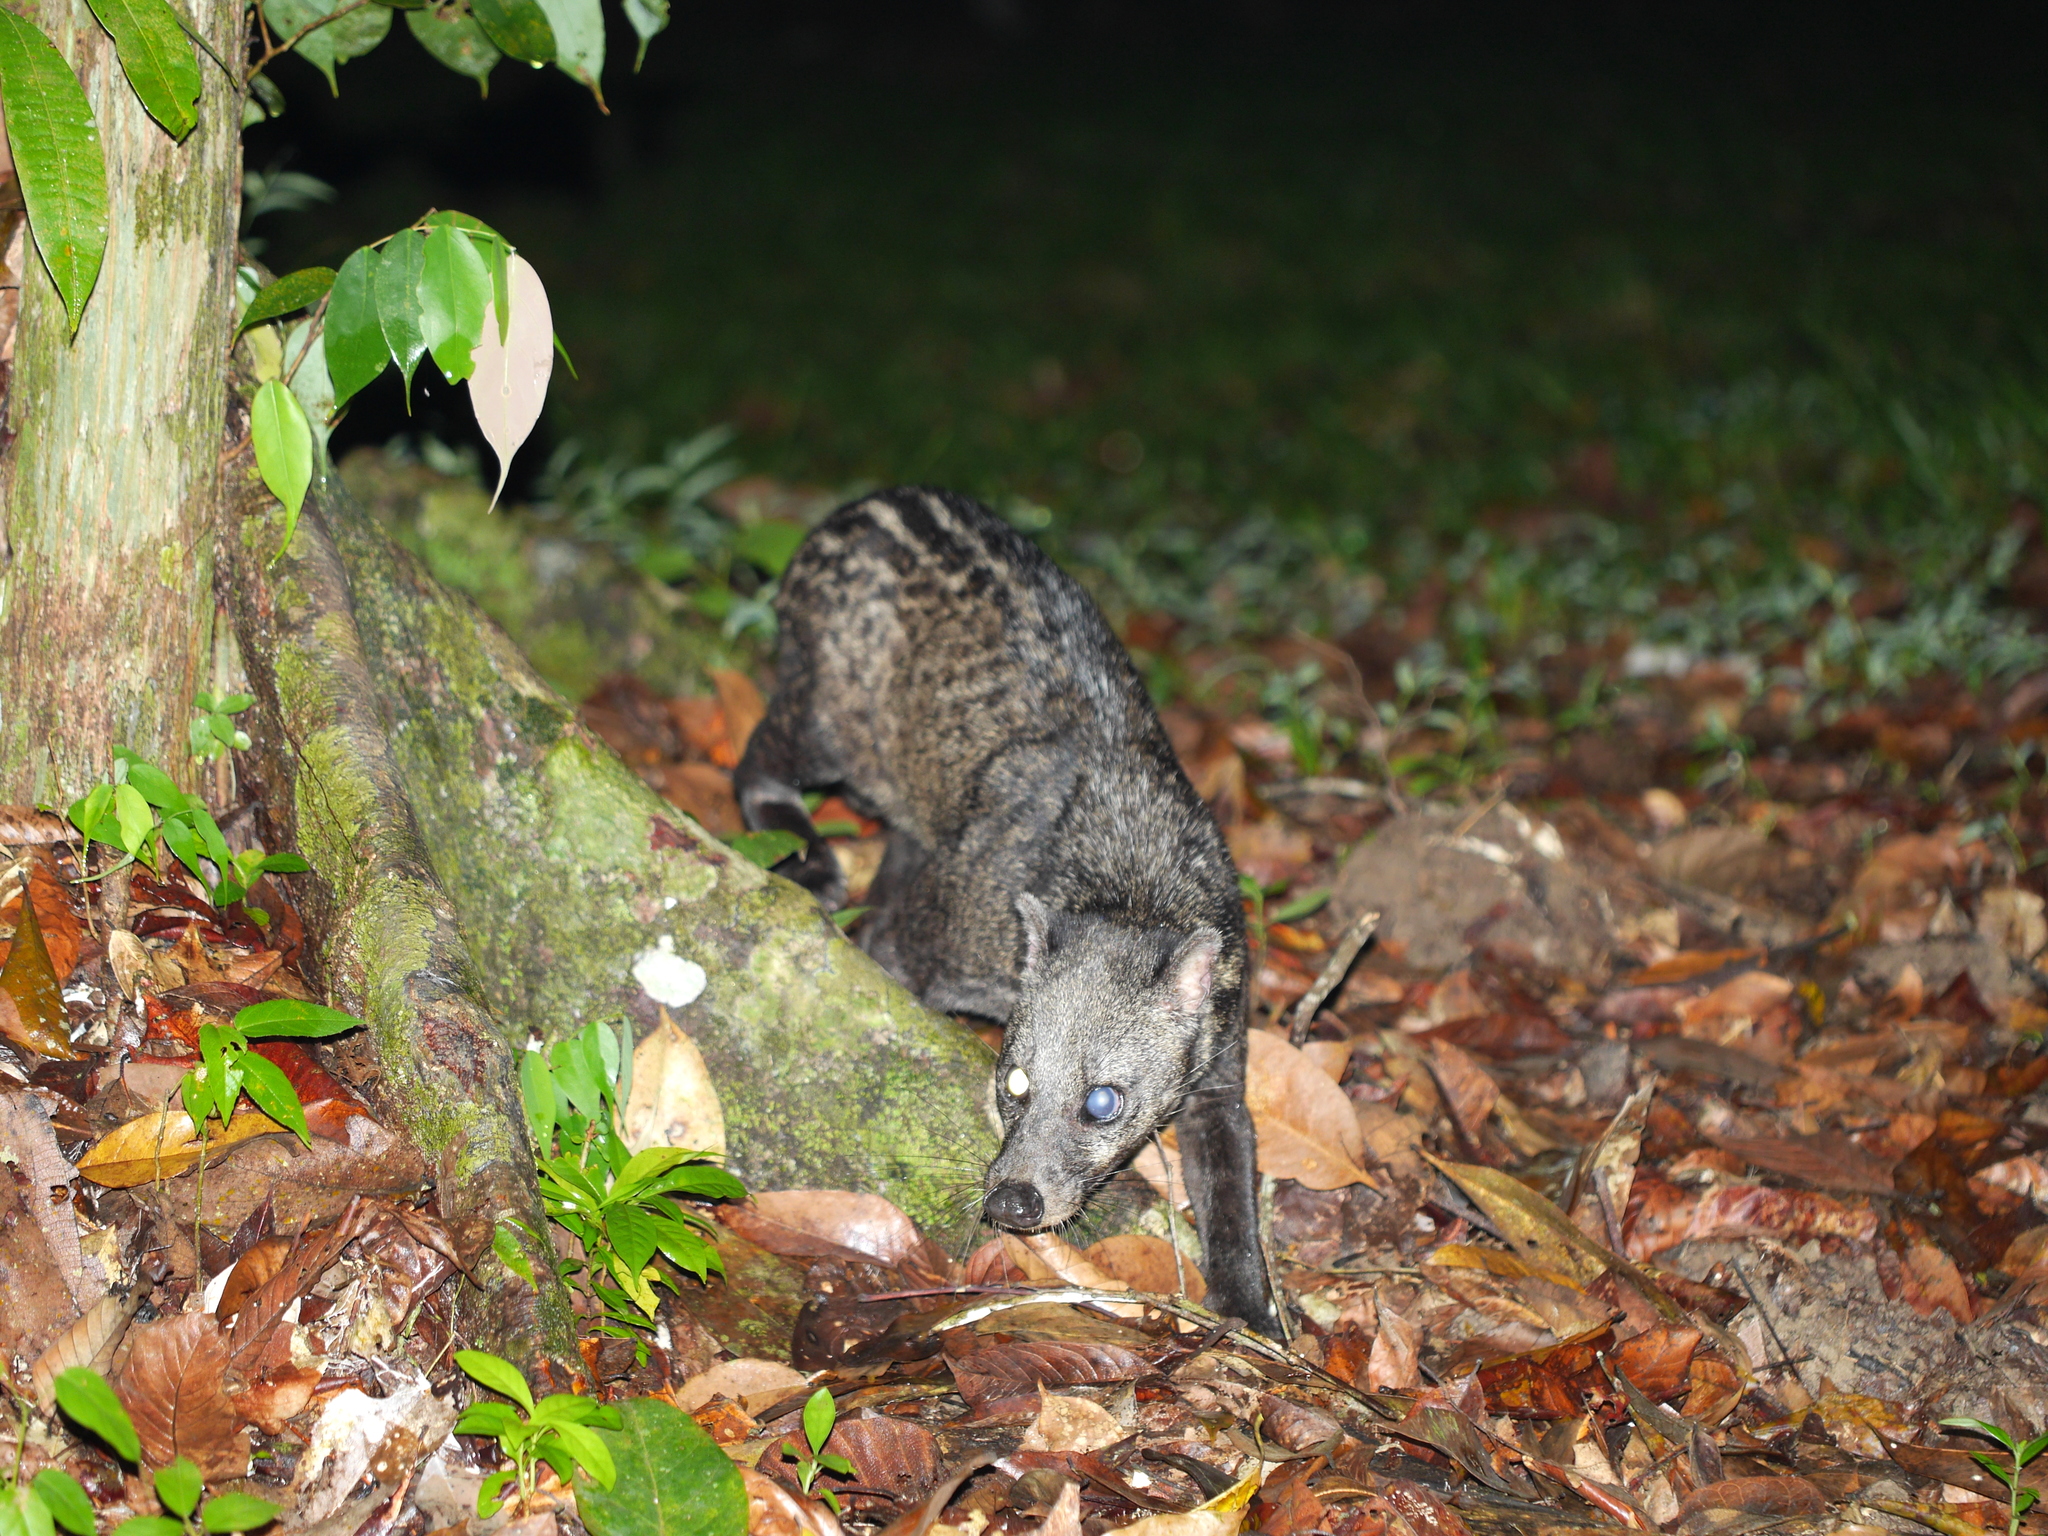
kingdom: Animalia
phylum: Chordata
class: Mammalia
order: Carnivora
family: Viverridae
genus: Viverra
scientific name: Viverra tangalunga
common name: Malayan civet
